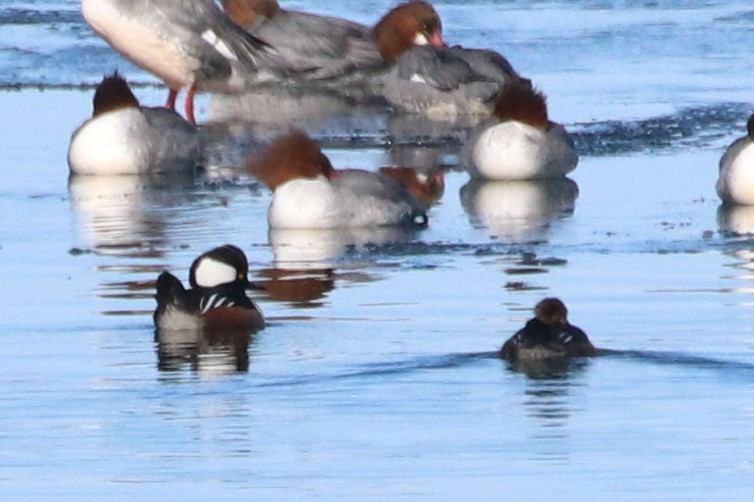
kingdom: Animalia
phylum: Chordata
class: Aves
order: Anseriformes
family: Anatidae
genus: Lophodytes
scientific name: Lophodytes cucullatus
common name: Hooded merganser
